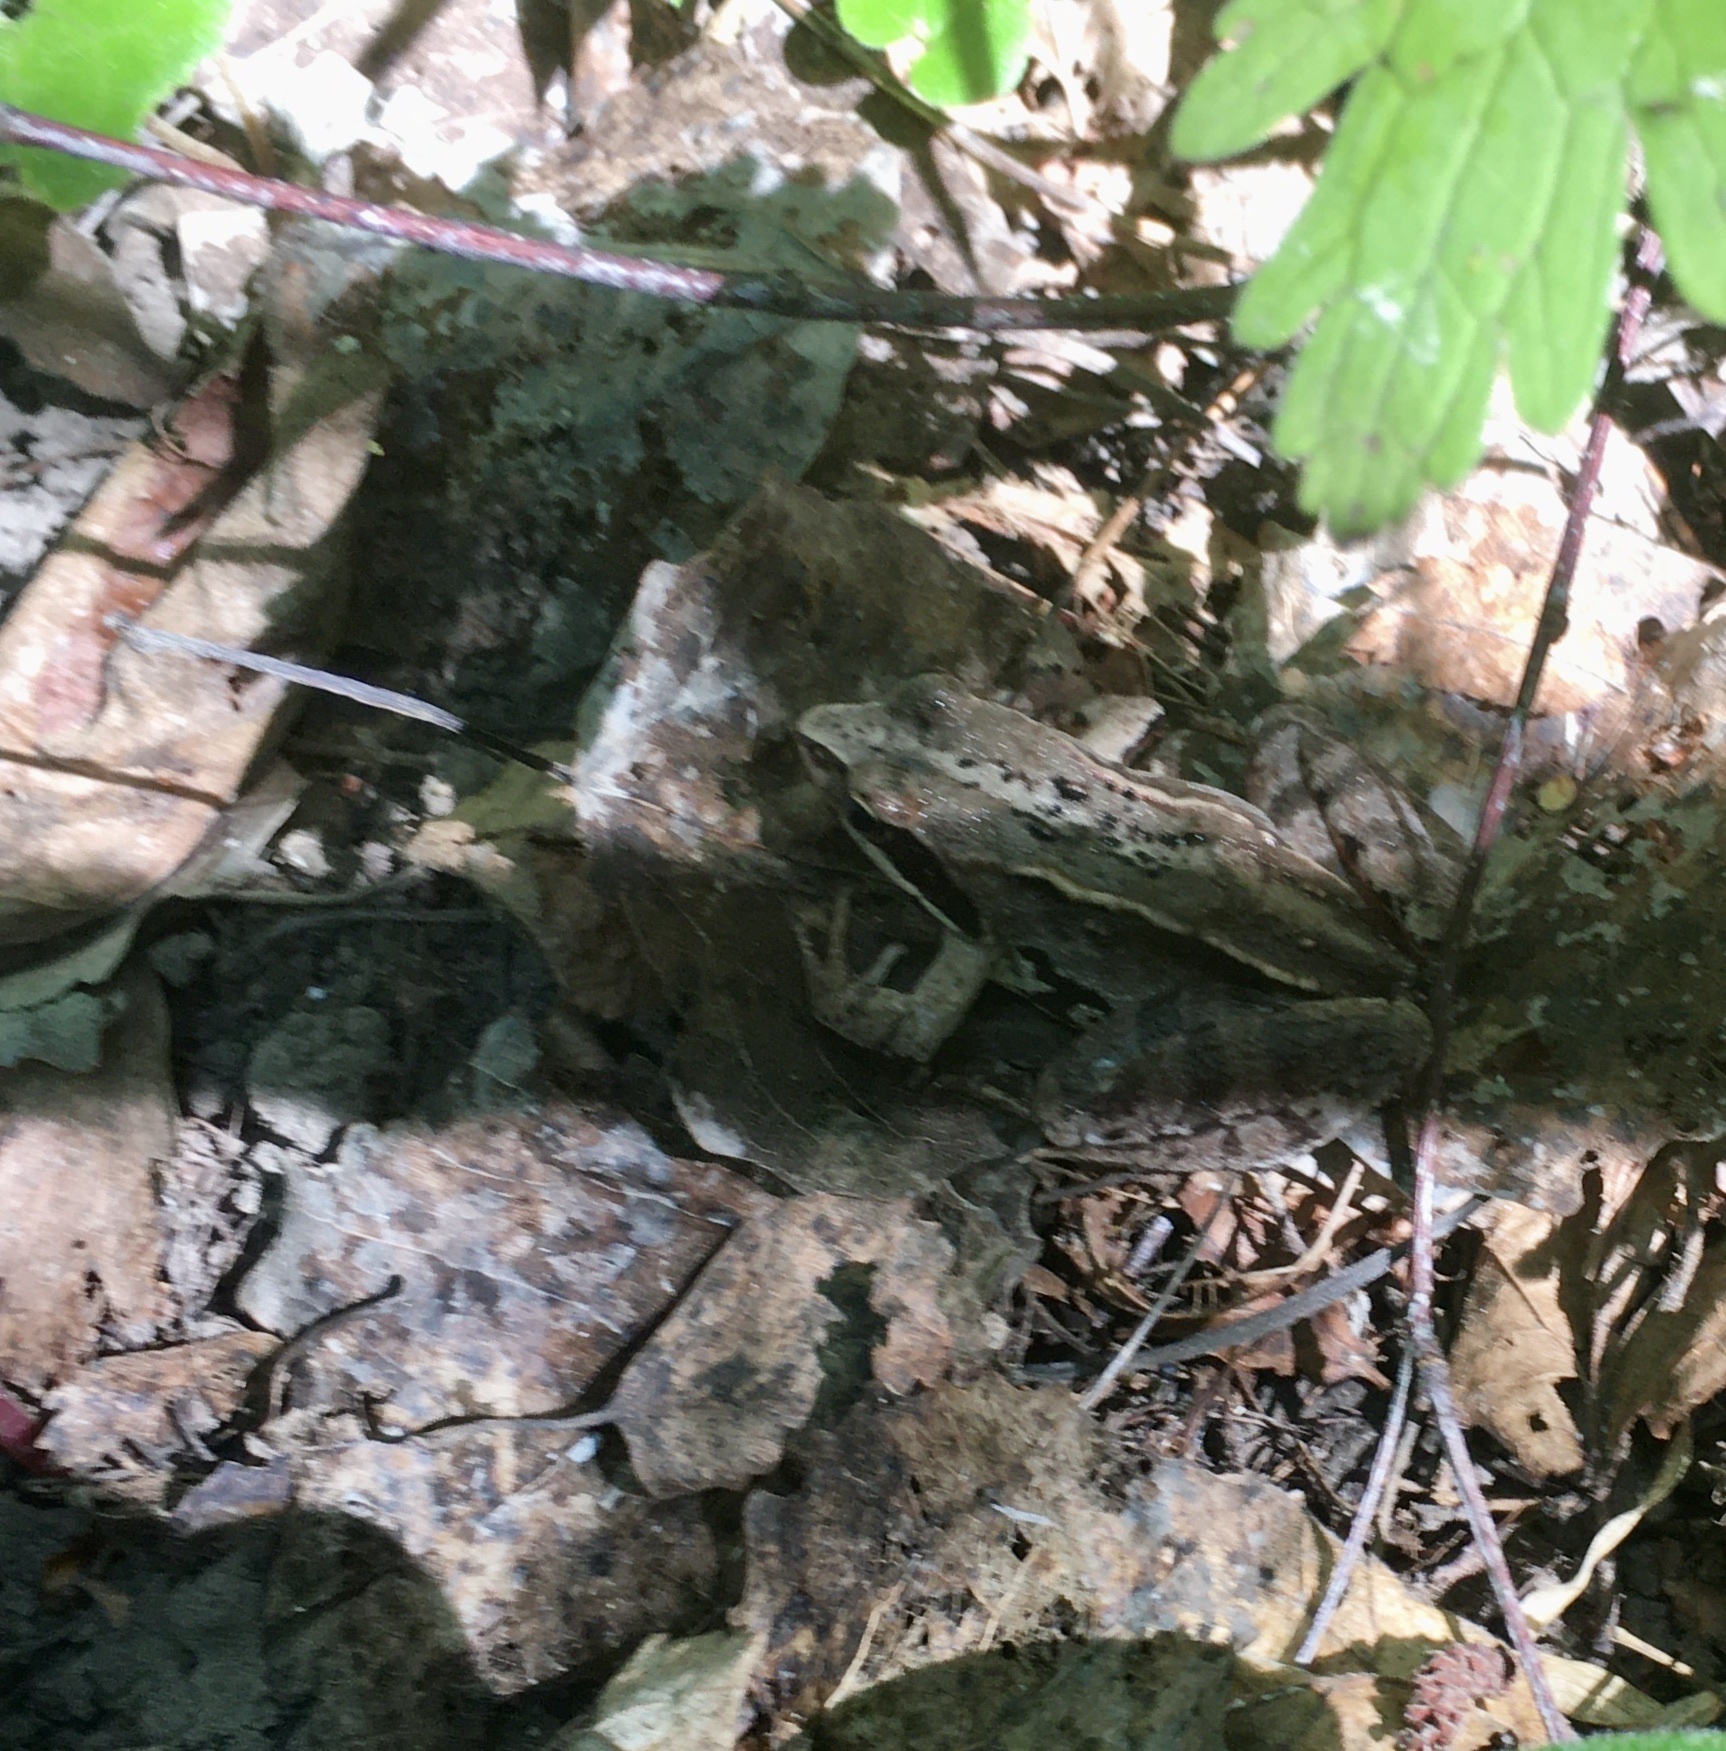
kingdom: Animalia
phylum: Chordata
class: Amphibia
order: Anura
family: Ranidae
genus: Rana
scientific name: Rana arvalis
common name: Moor frog
